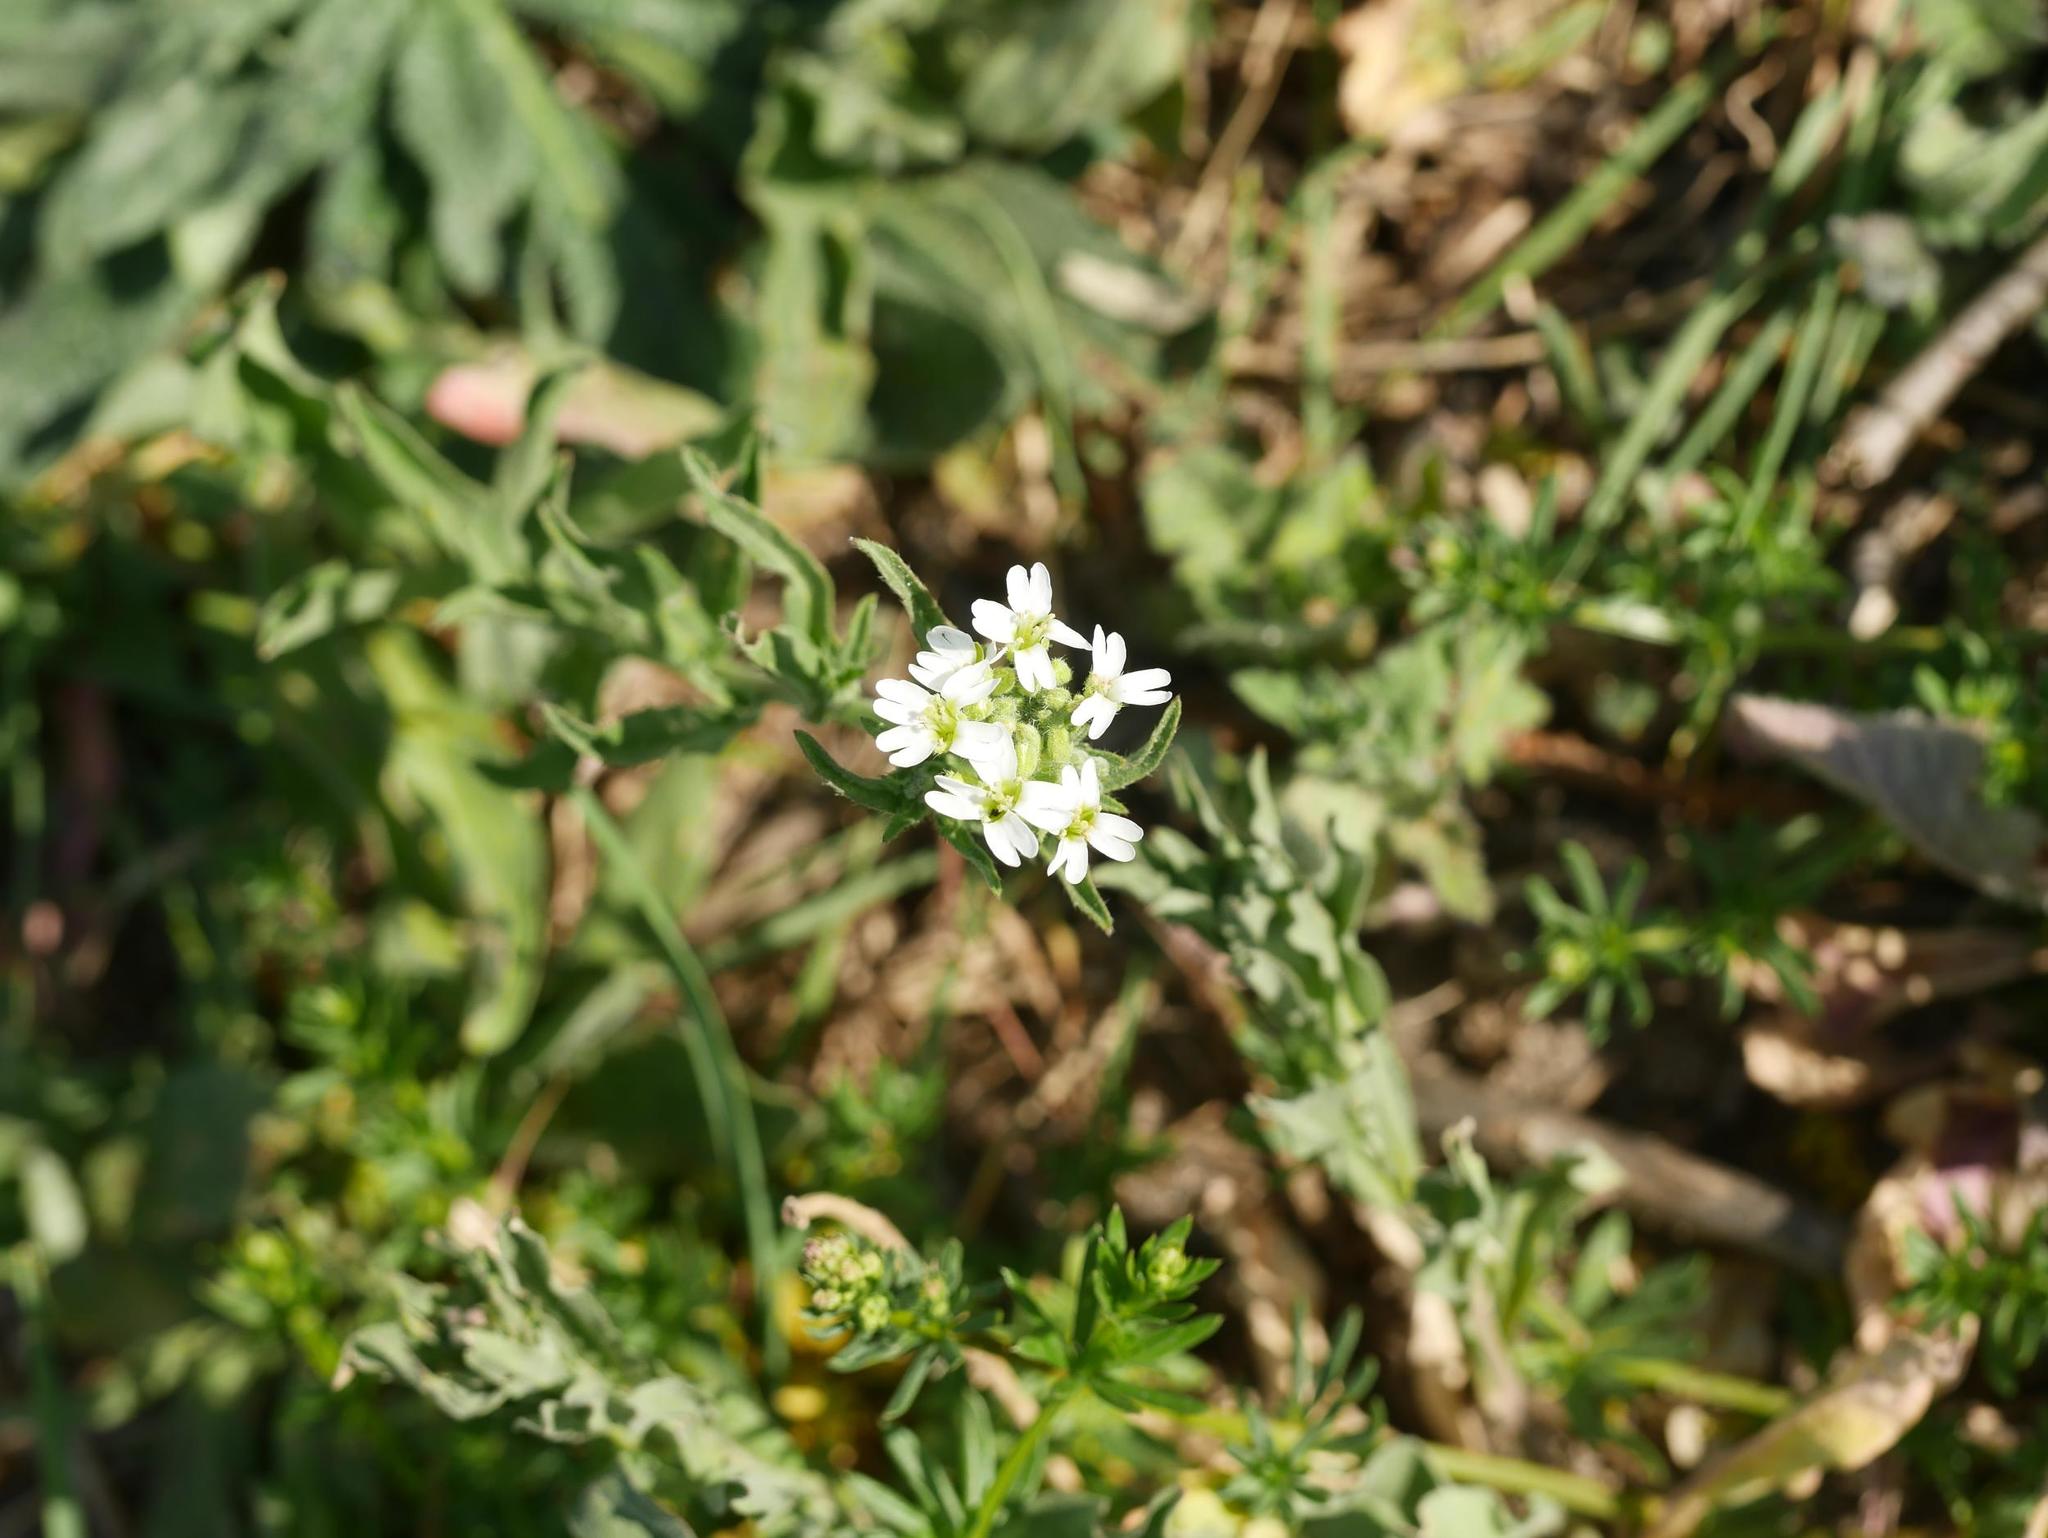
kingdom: Plantae
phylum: Tracheophyta
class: Magnoliopsida
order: Brassicales
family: Brassicaceae
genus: Berteroa
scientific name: Berteroa incana
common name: Hoary alison
